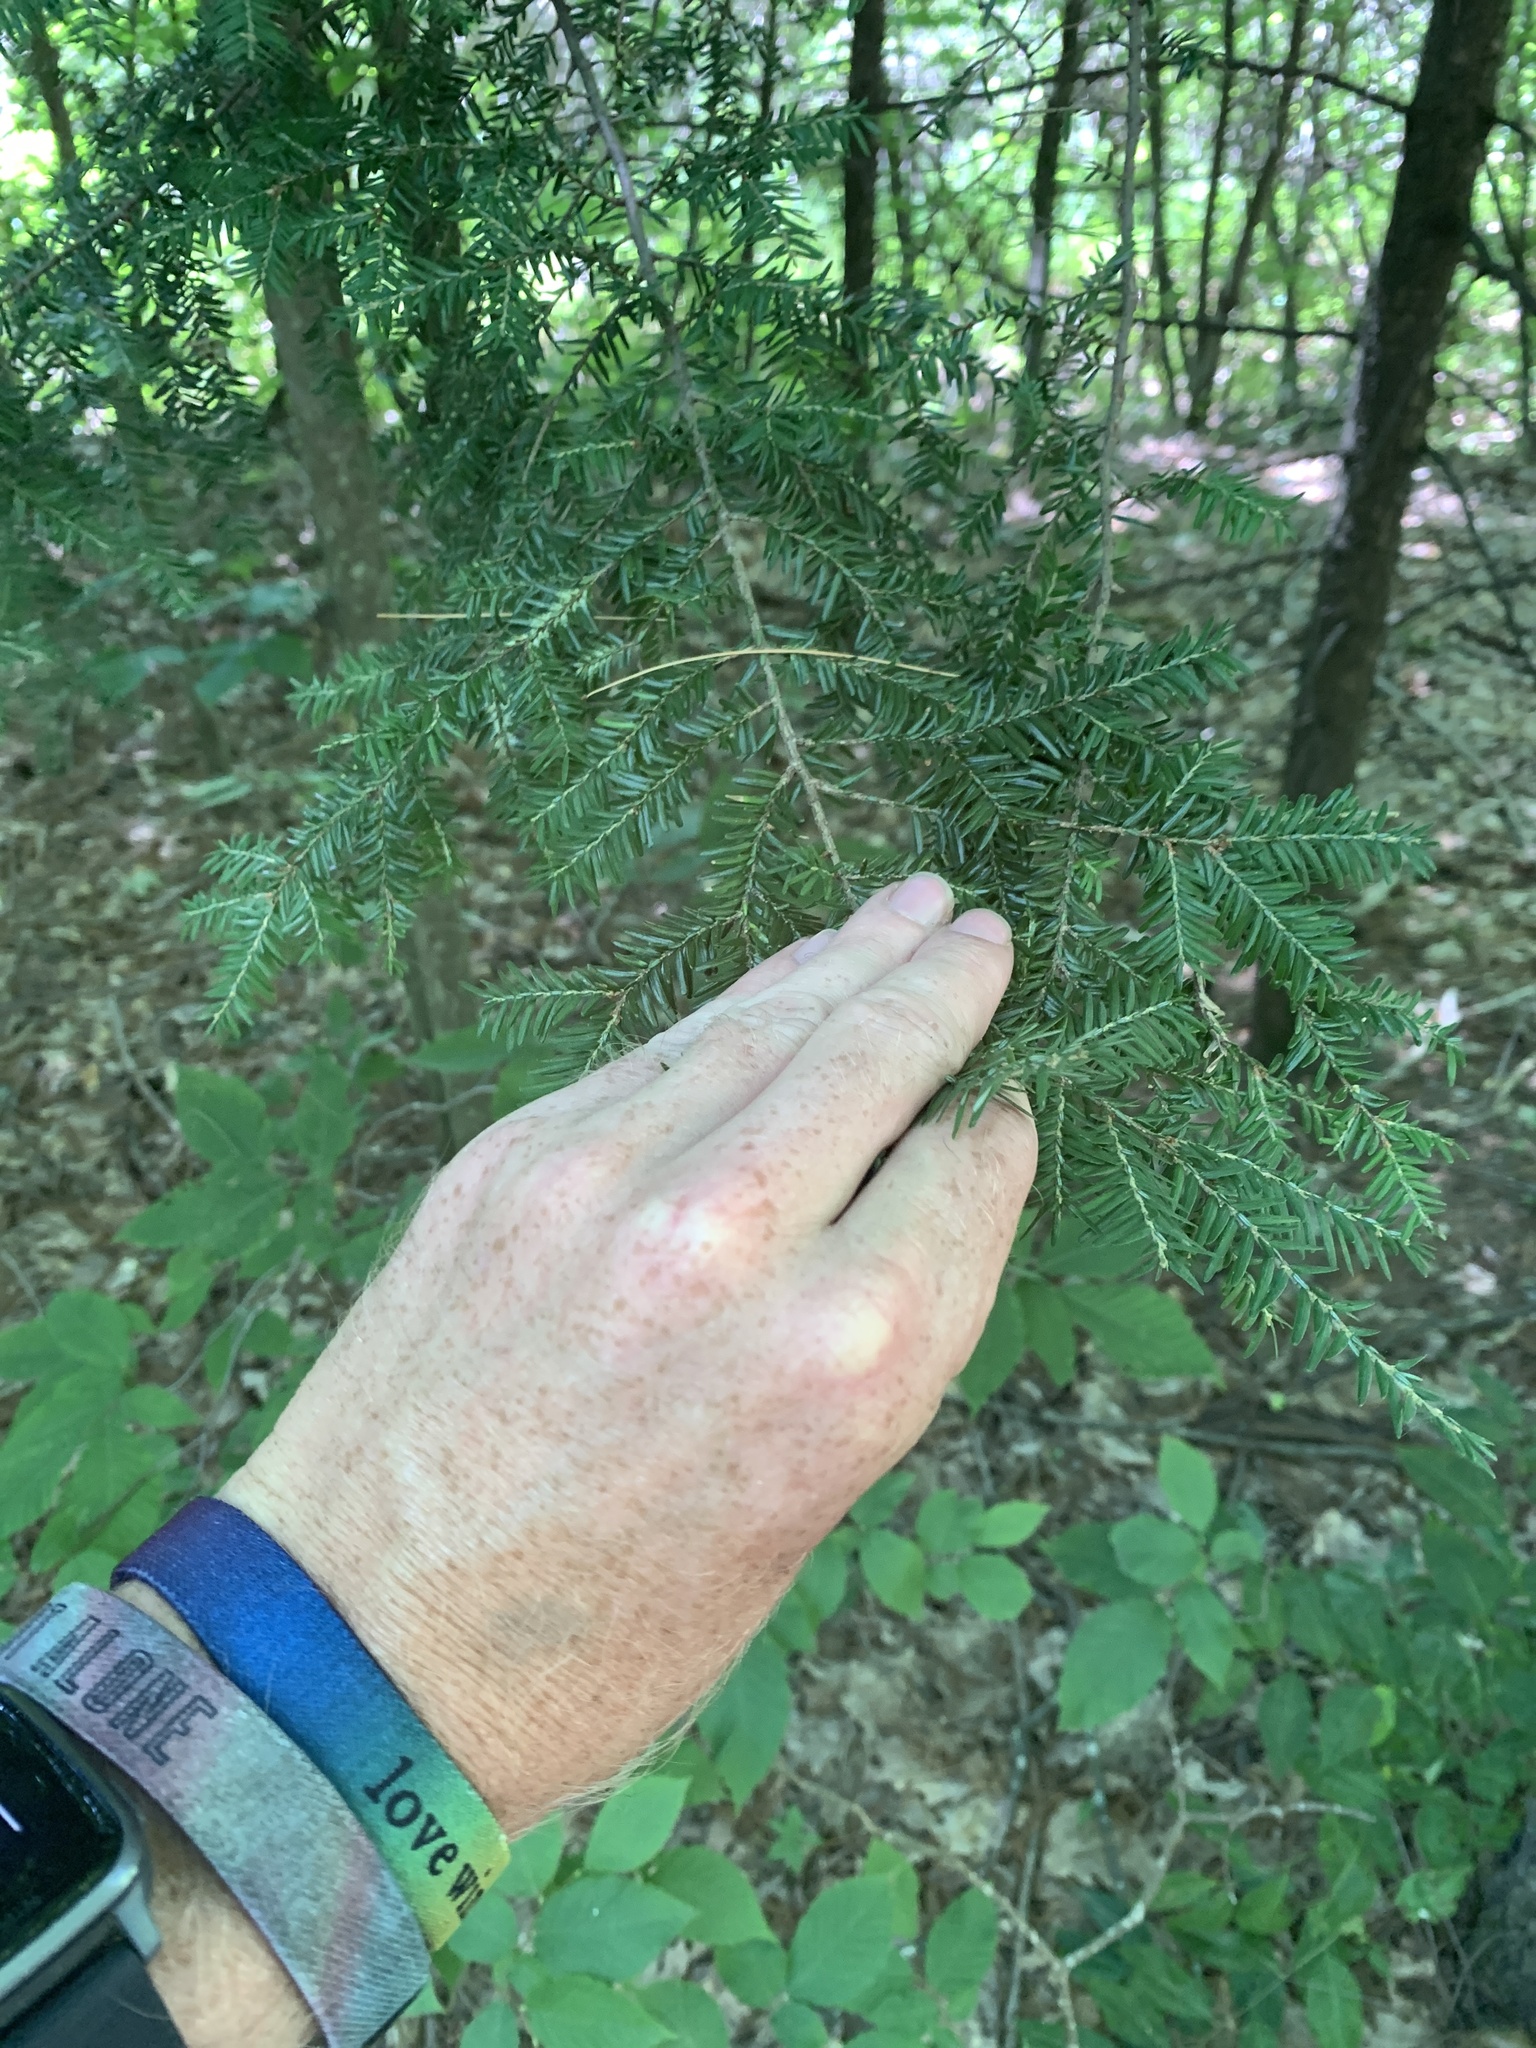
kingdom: Plantae
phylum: Tracheophyta
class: Pinopsida
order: Pinales
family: Pinaceae
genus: Tsuga
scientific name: Tsuga canadensis
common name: Eastern hemlock
